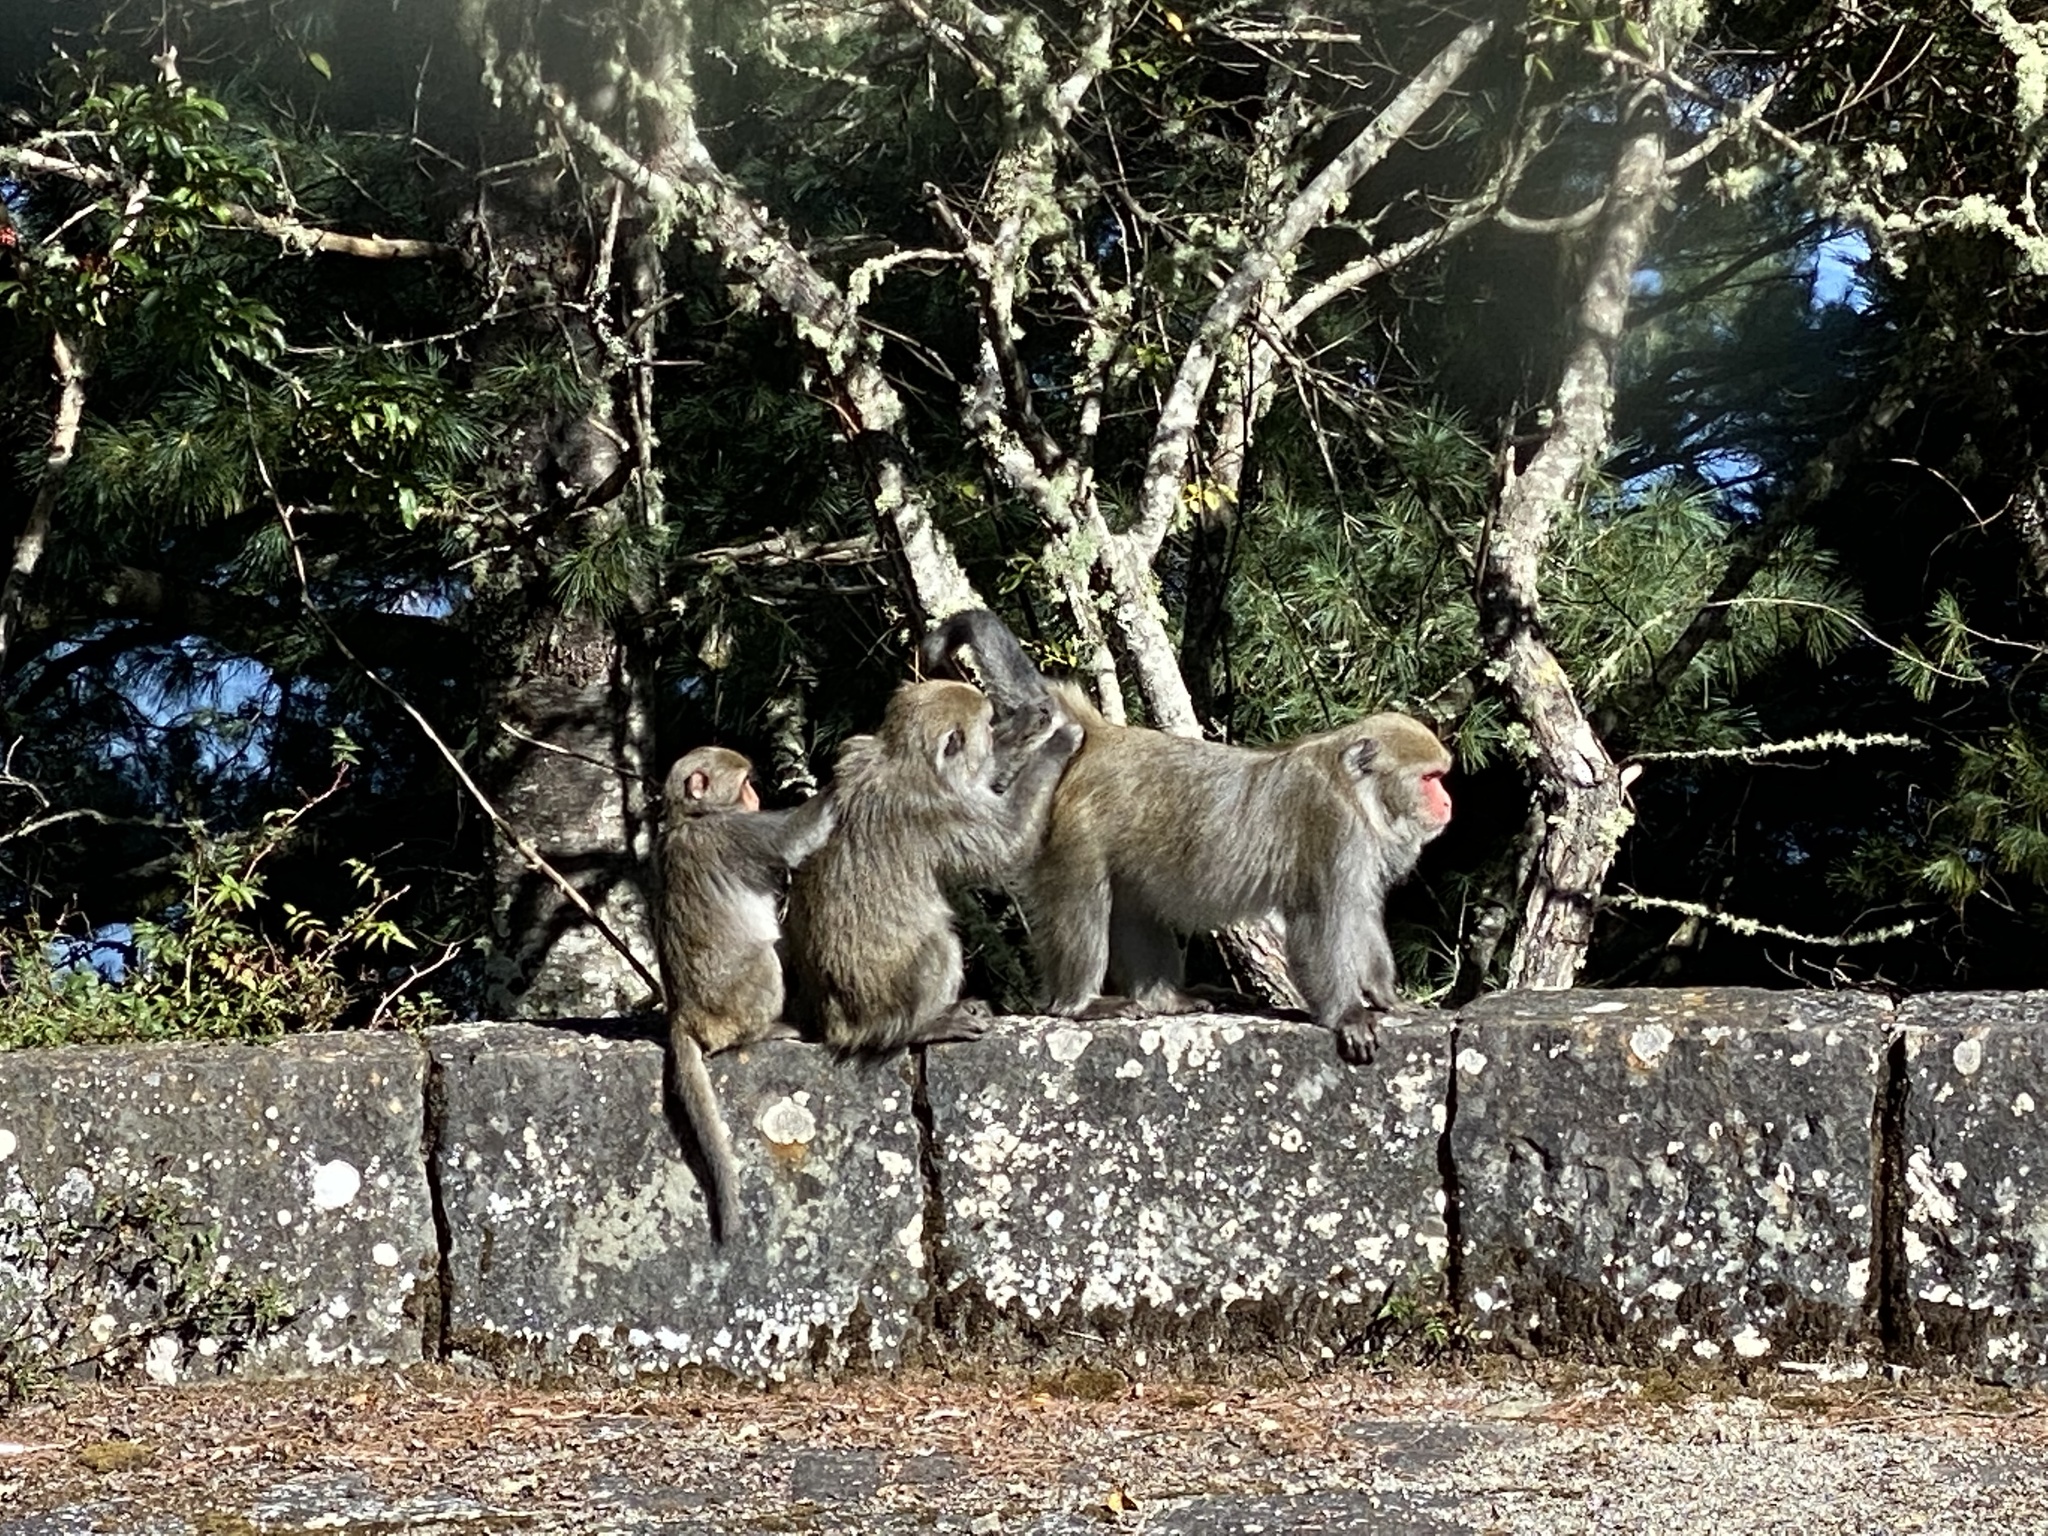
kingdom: Animalia
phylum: Chordata
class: Mammalia
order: Primates
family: Cercopithecidae
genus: Macaca
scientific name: Macaca cyclopis
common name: Formosan rock macaque
